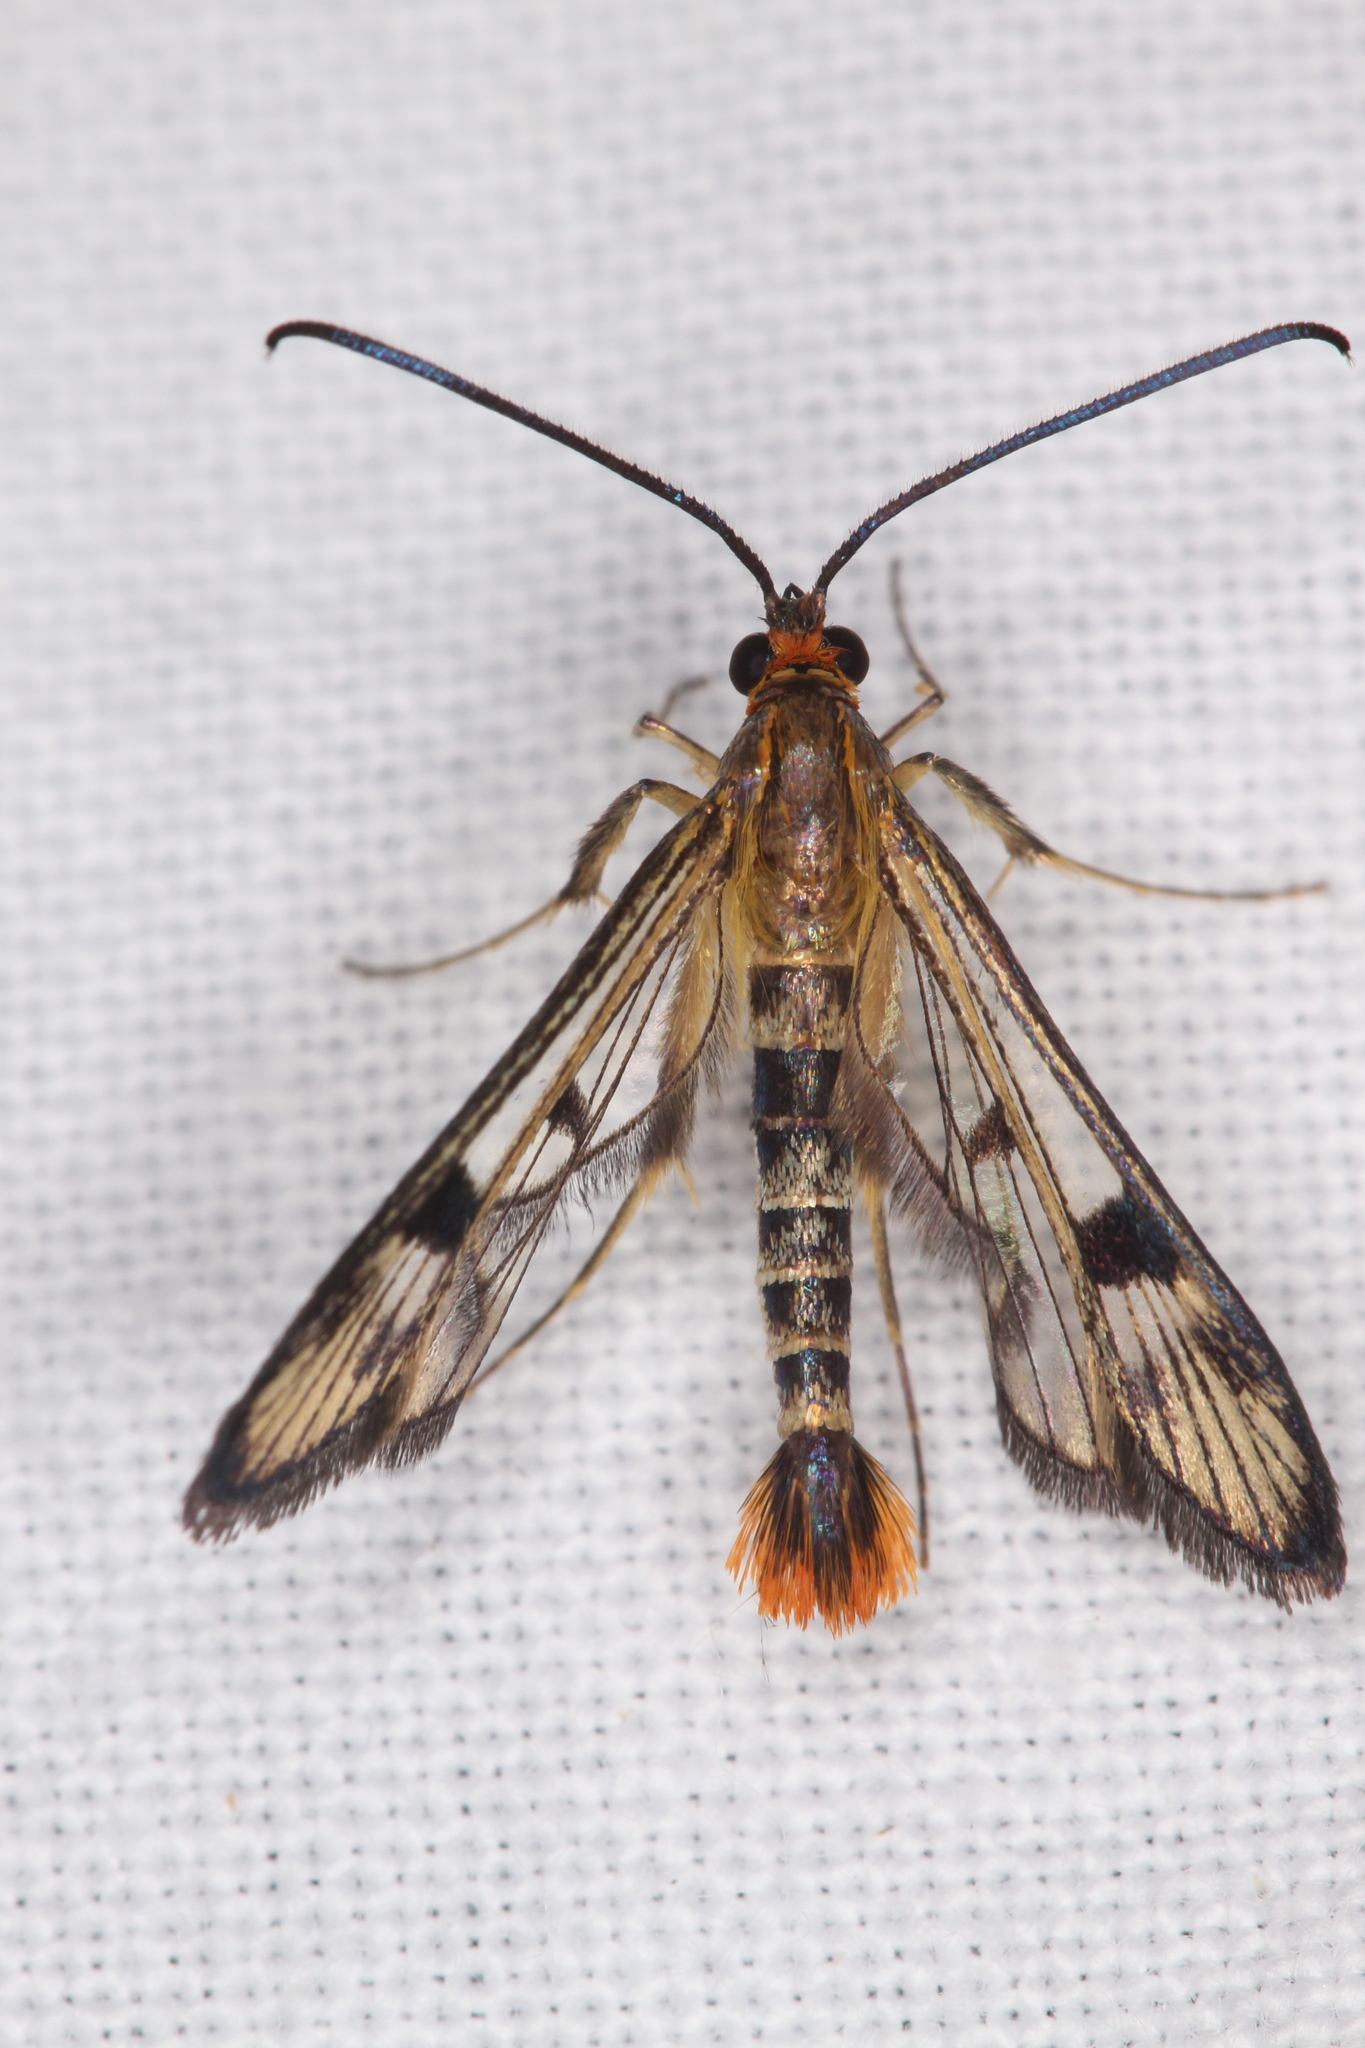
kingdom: Animalia
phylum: Arthropoda
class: Insecta
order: Lepidoptera
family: Sesiidae
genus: Synanthedon
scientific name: Synanthedon acerni
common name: Maple callus borer moth
